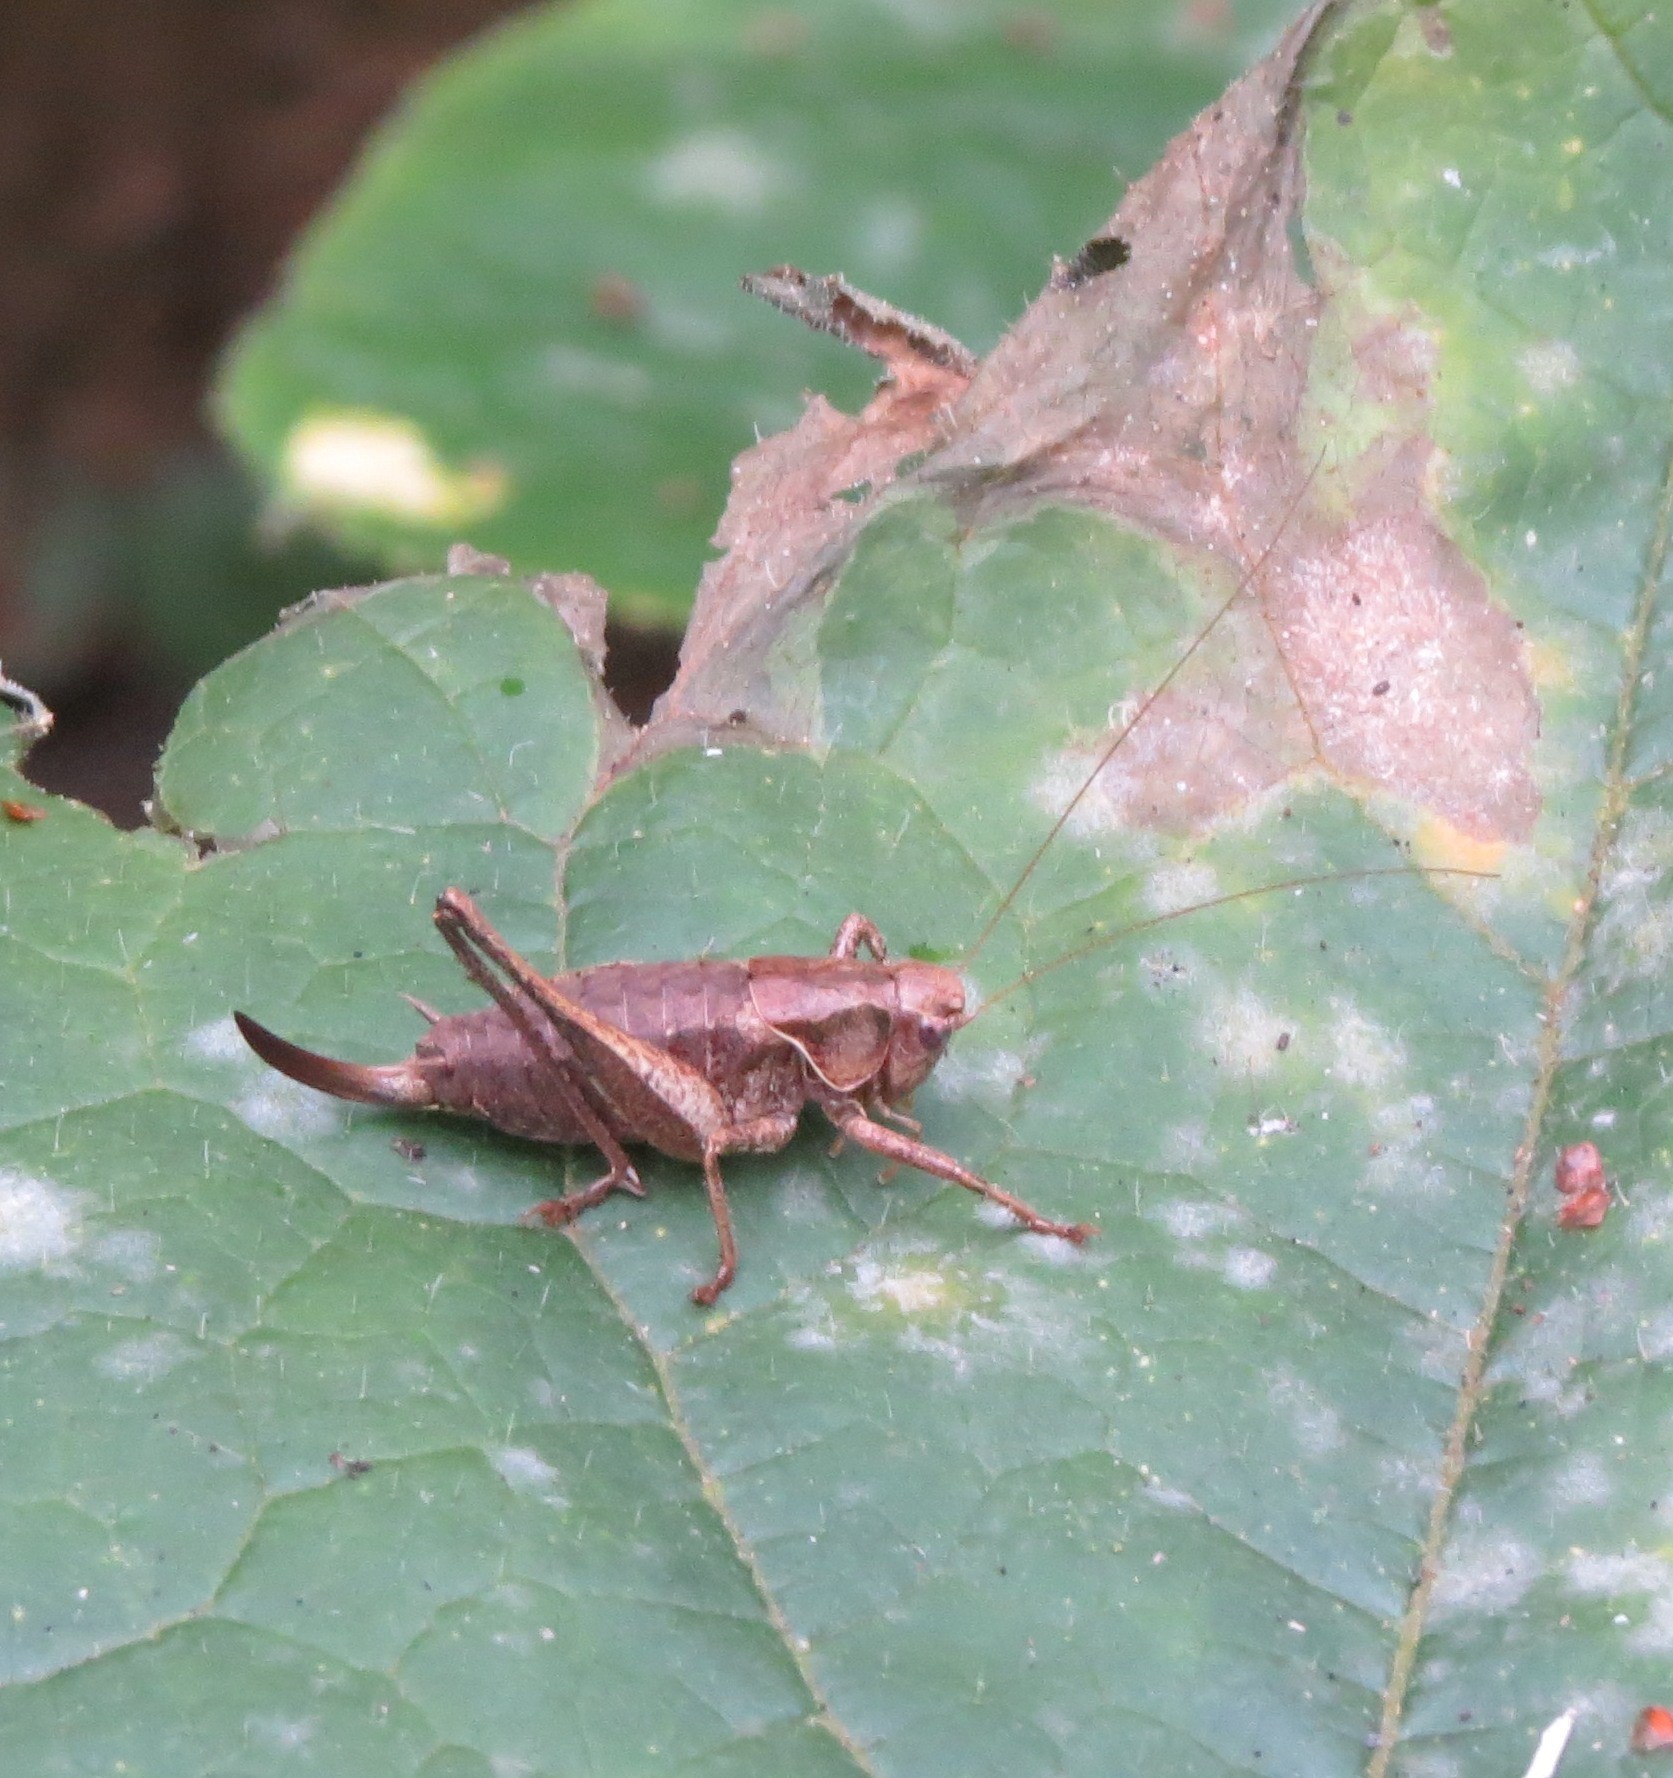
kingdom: Animalia
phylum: Arthropoda
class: Insecta
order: Orthoptera
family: Tettigoniidae
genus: Pholidoptera
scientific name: Pholidoptera griseoaptera
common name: Dark bush-cricket
